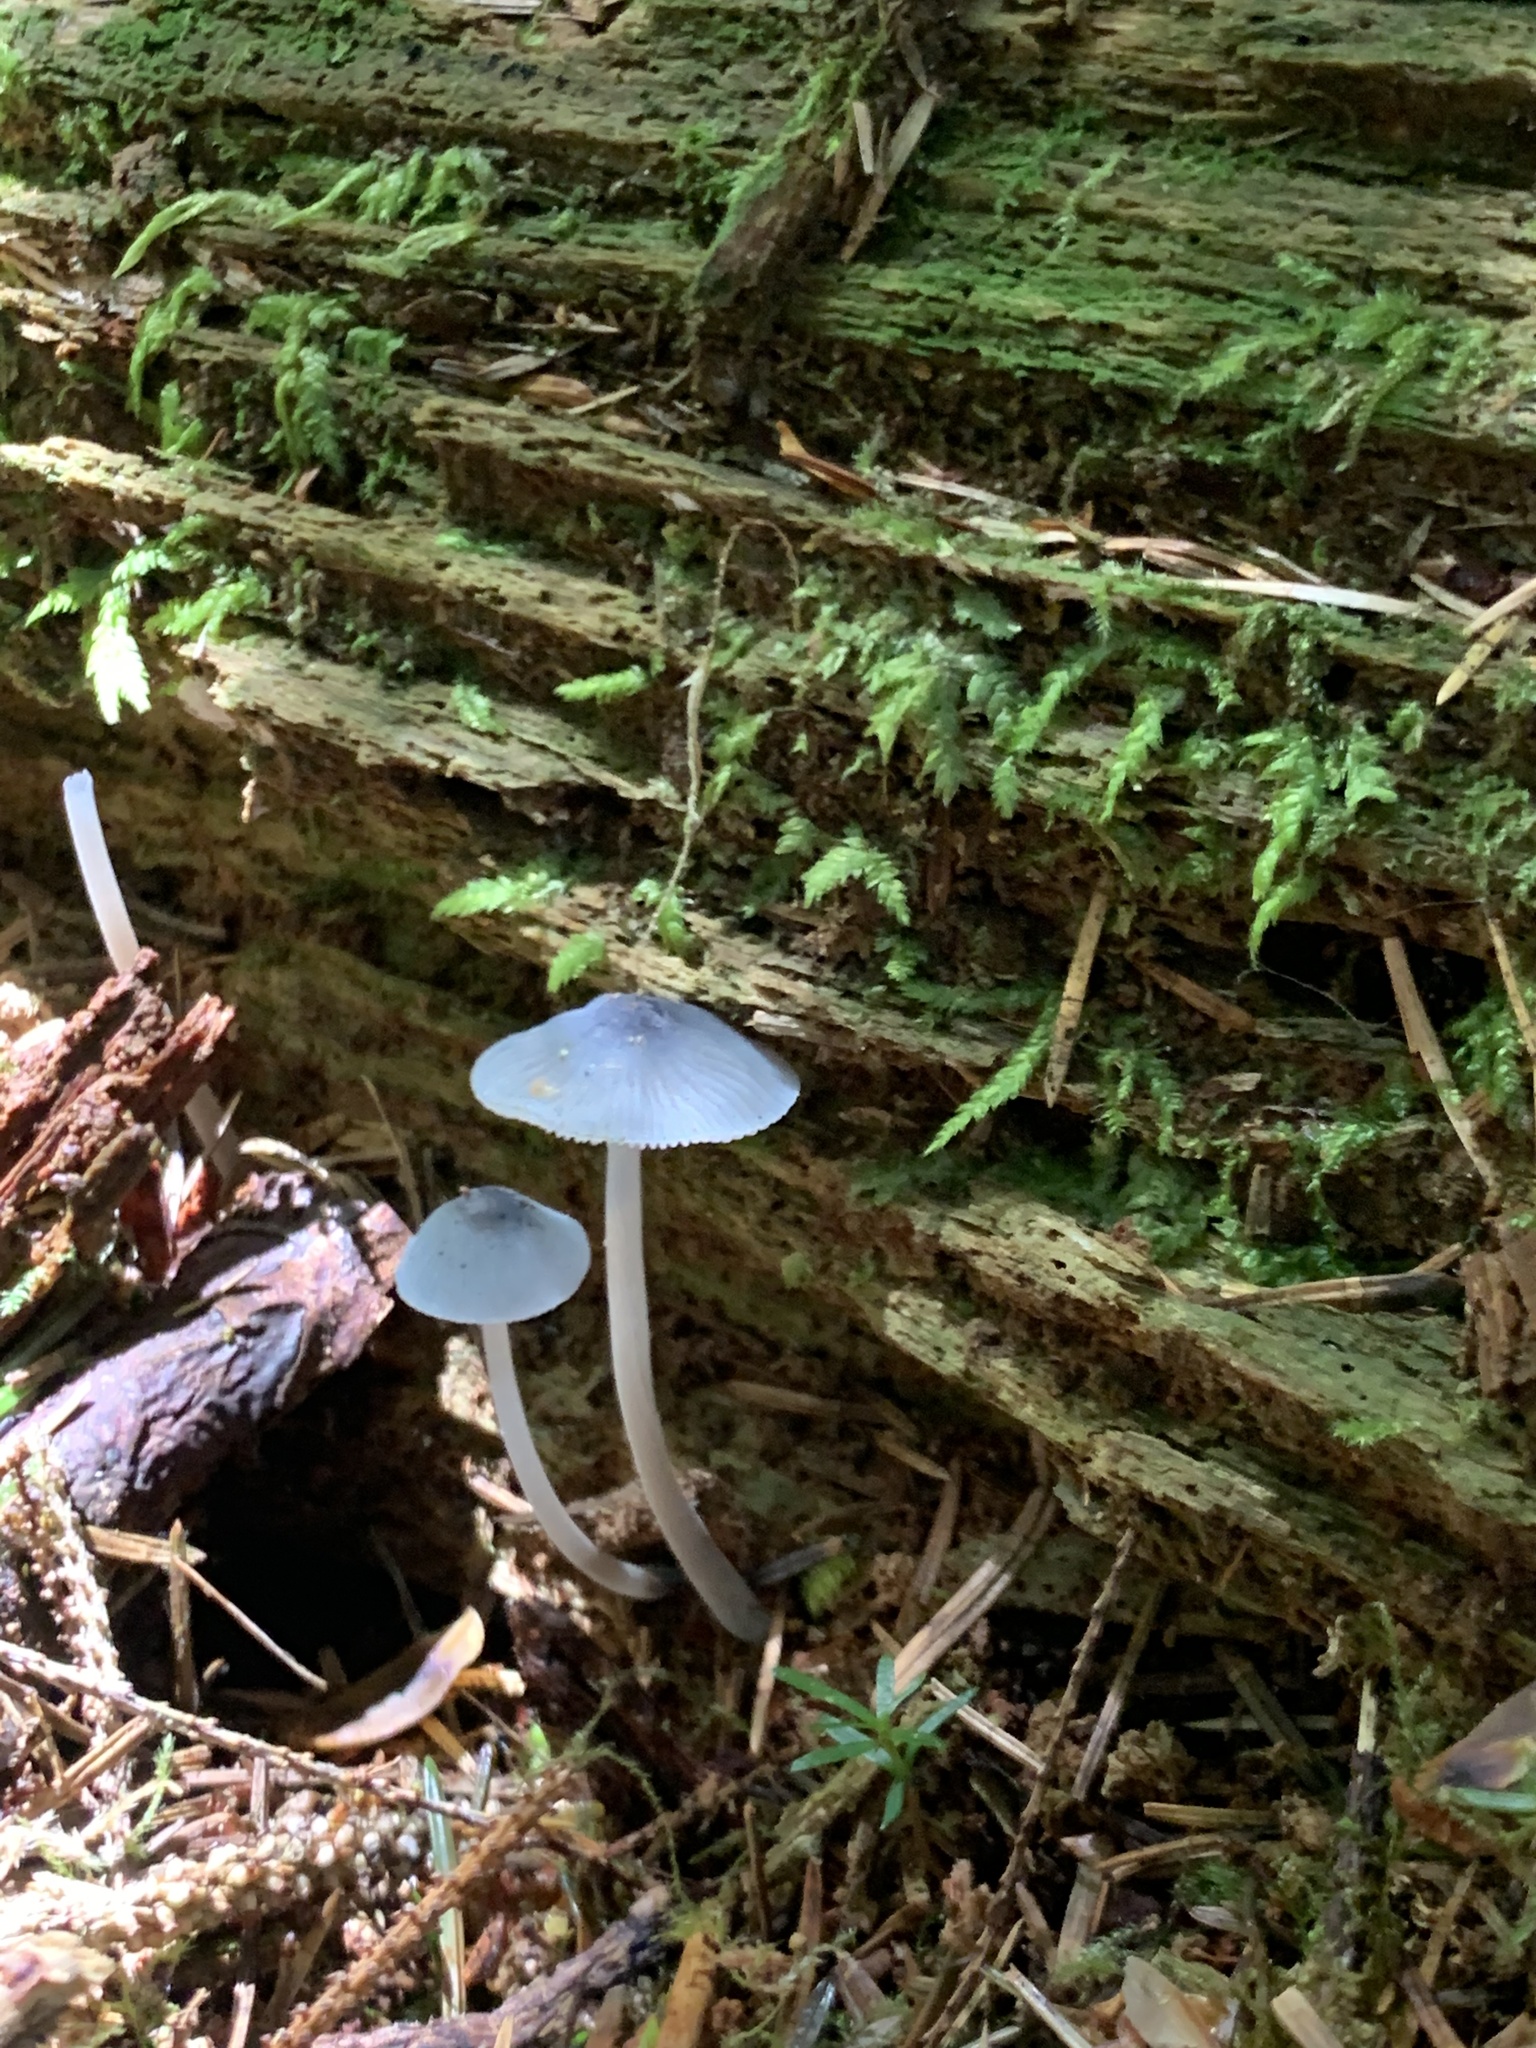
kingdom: Fungi
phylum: Basidiomycota
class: Agaricomycetes
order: Agaricales
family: Mycenaceae
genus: Mycena
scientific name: Mycena amicta
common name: Coldfoot bonnet
